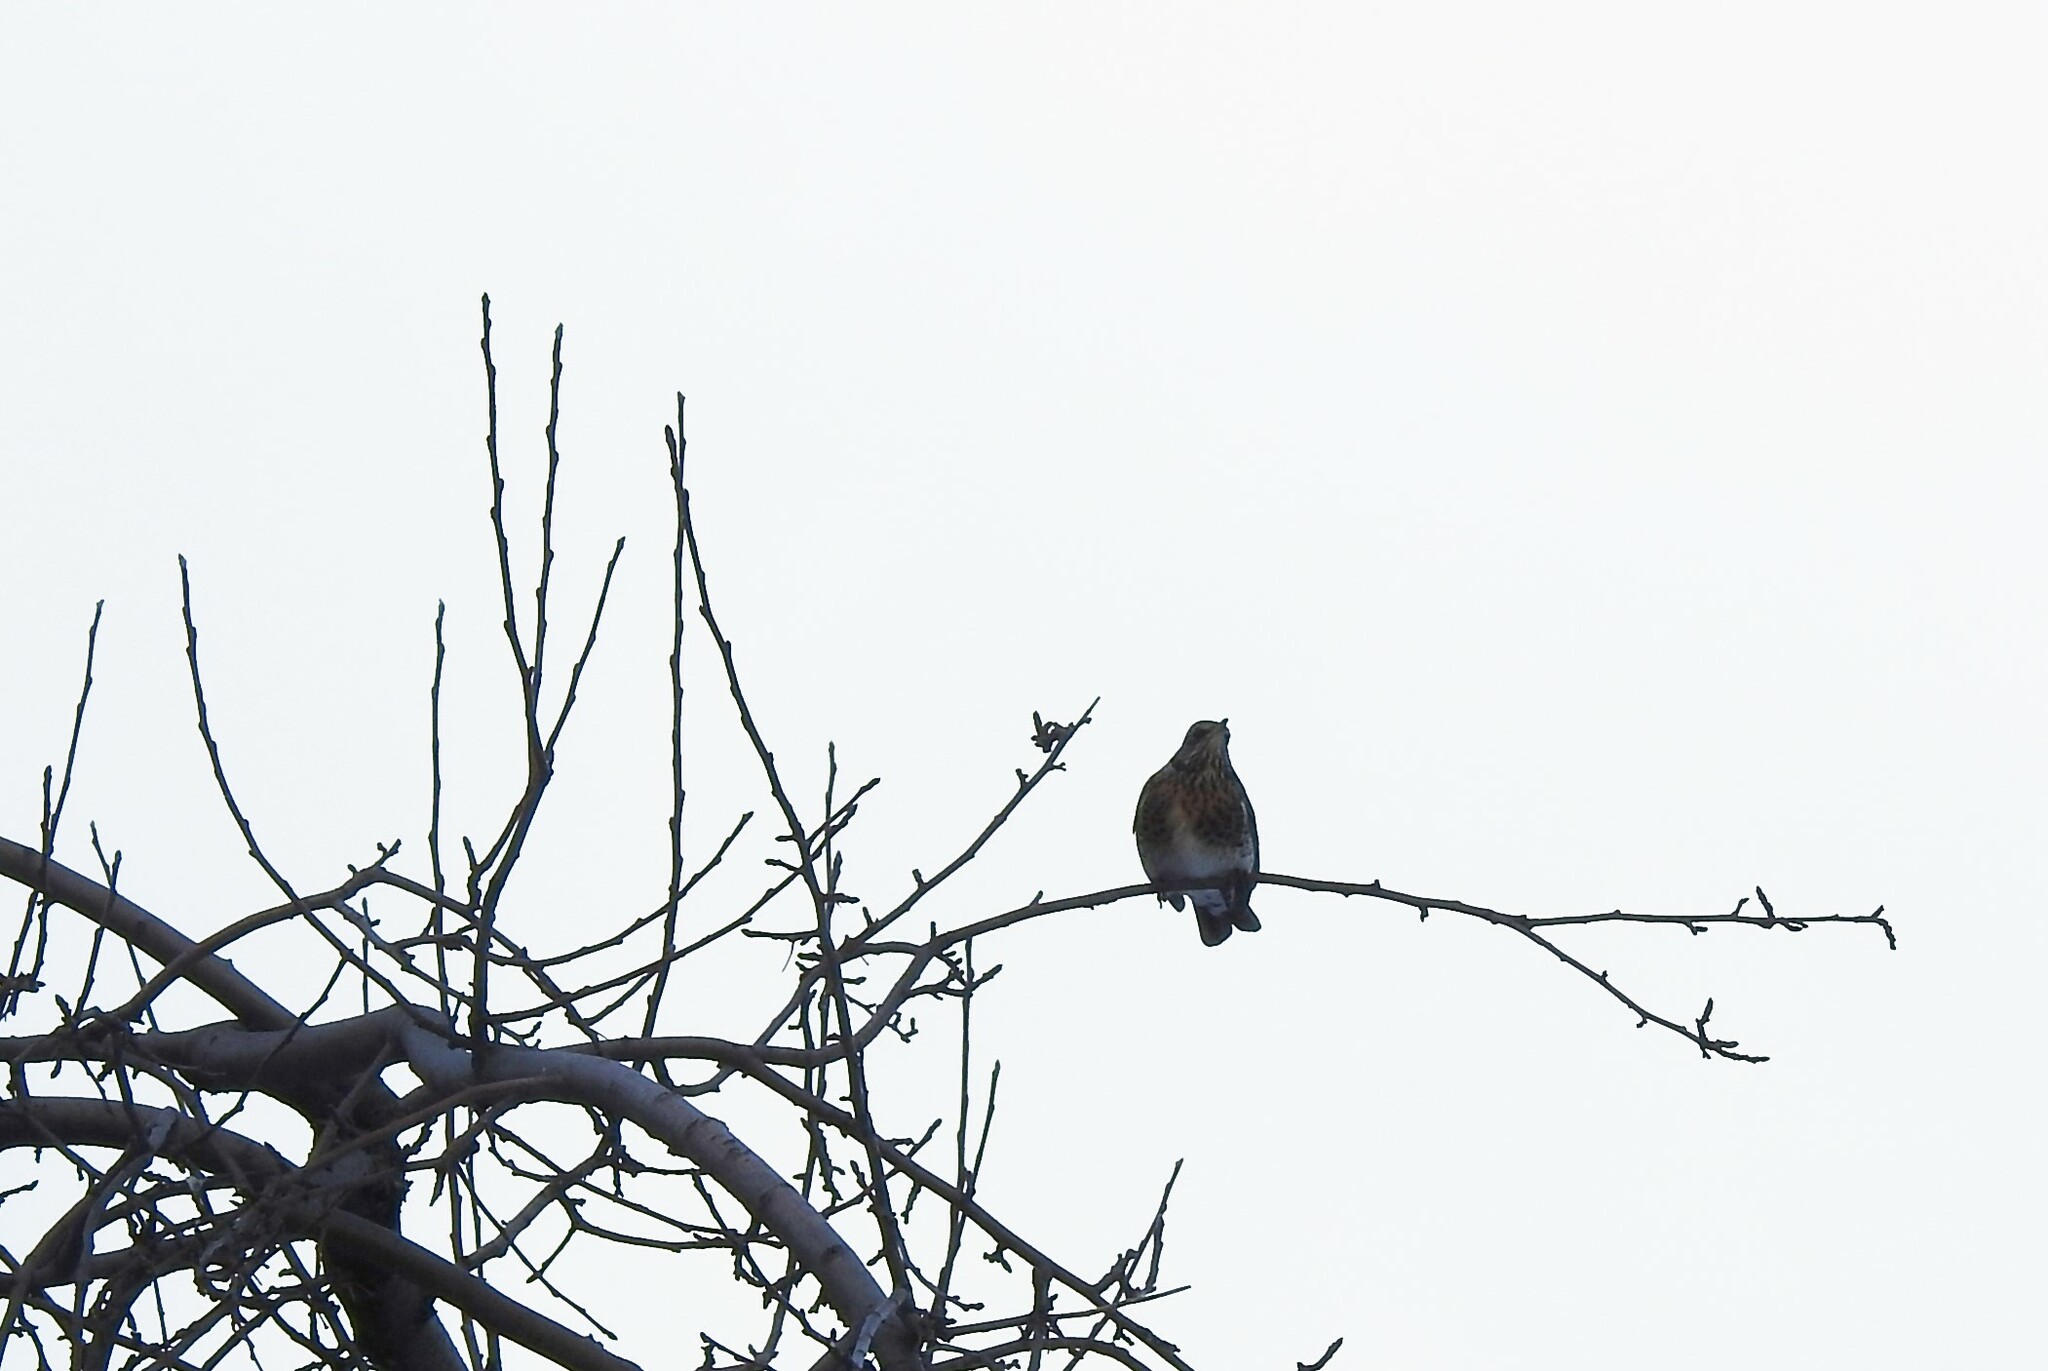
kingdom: Animalia
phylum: Chordata
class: Aves
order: Passeriformes
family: Turdidae
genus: Turdus
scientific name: Turdus pilaris
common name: Fieldfare
